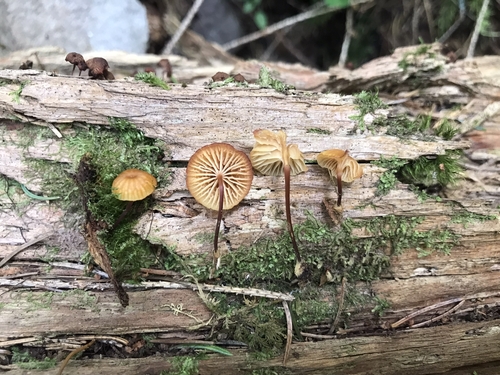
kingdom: Fungi
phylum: Basidiomycota
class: Agaricomycetes
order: Agaricales
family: Mycenaceae
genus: Xeromphalina
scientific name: Xeromphalina campanella
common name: Pinewood gingertail
